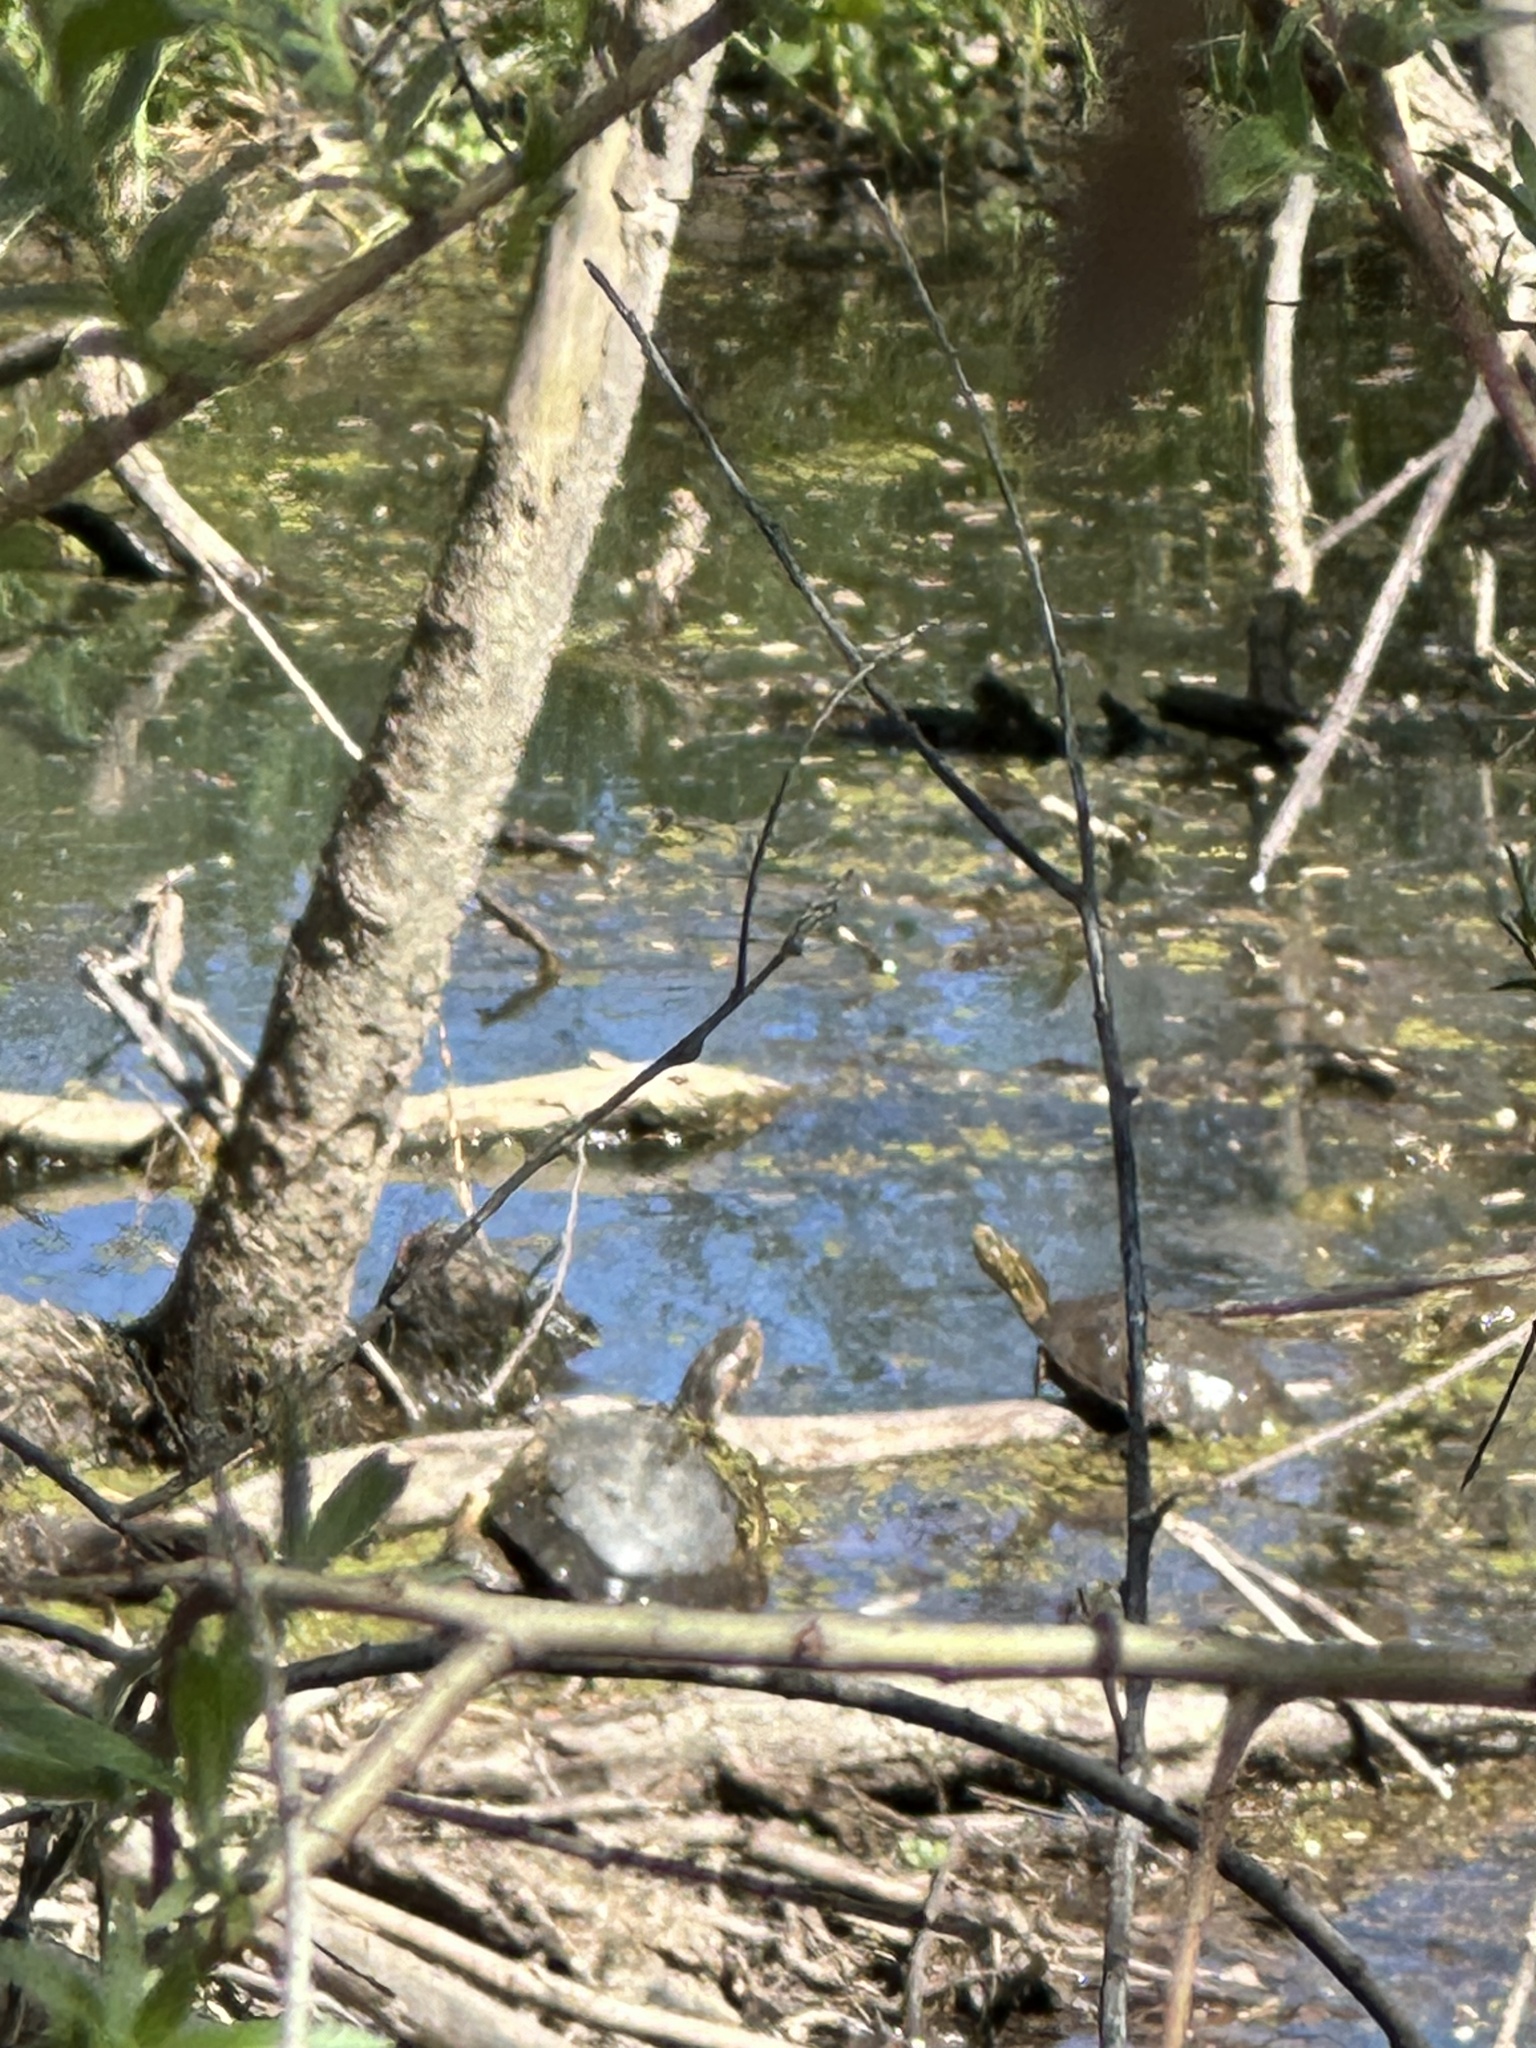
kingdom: Animalia
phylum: Chordata
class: Testudines
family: Emydidae
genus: Actinemys
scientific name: Actinemys marmorata
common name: Western pond turtle
